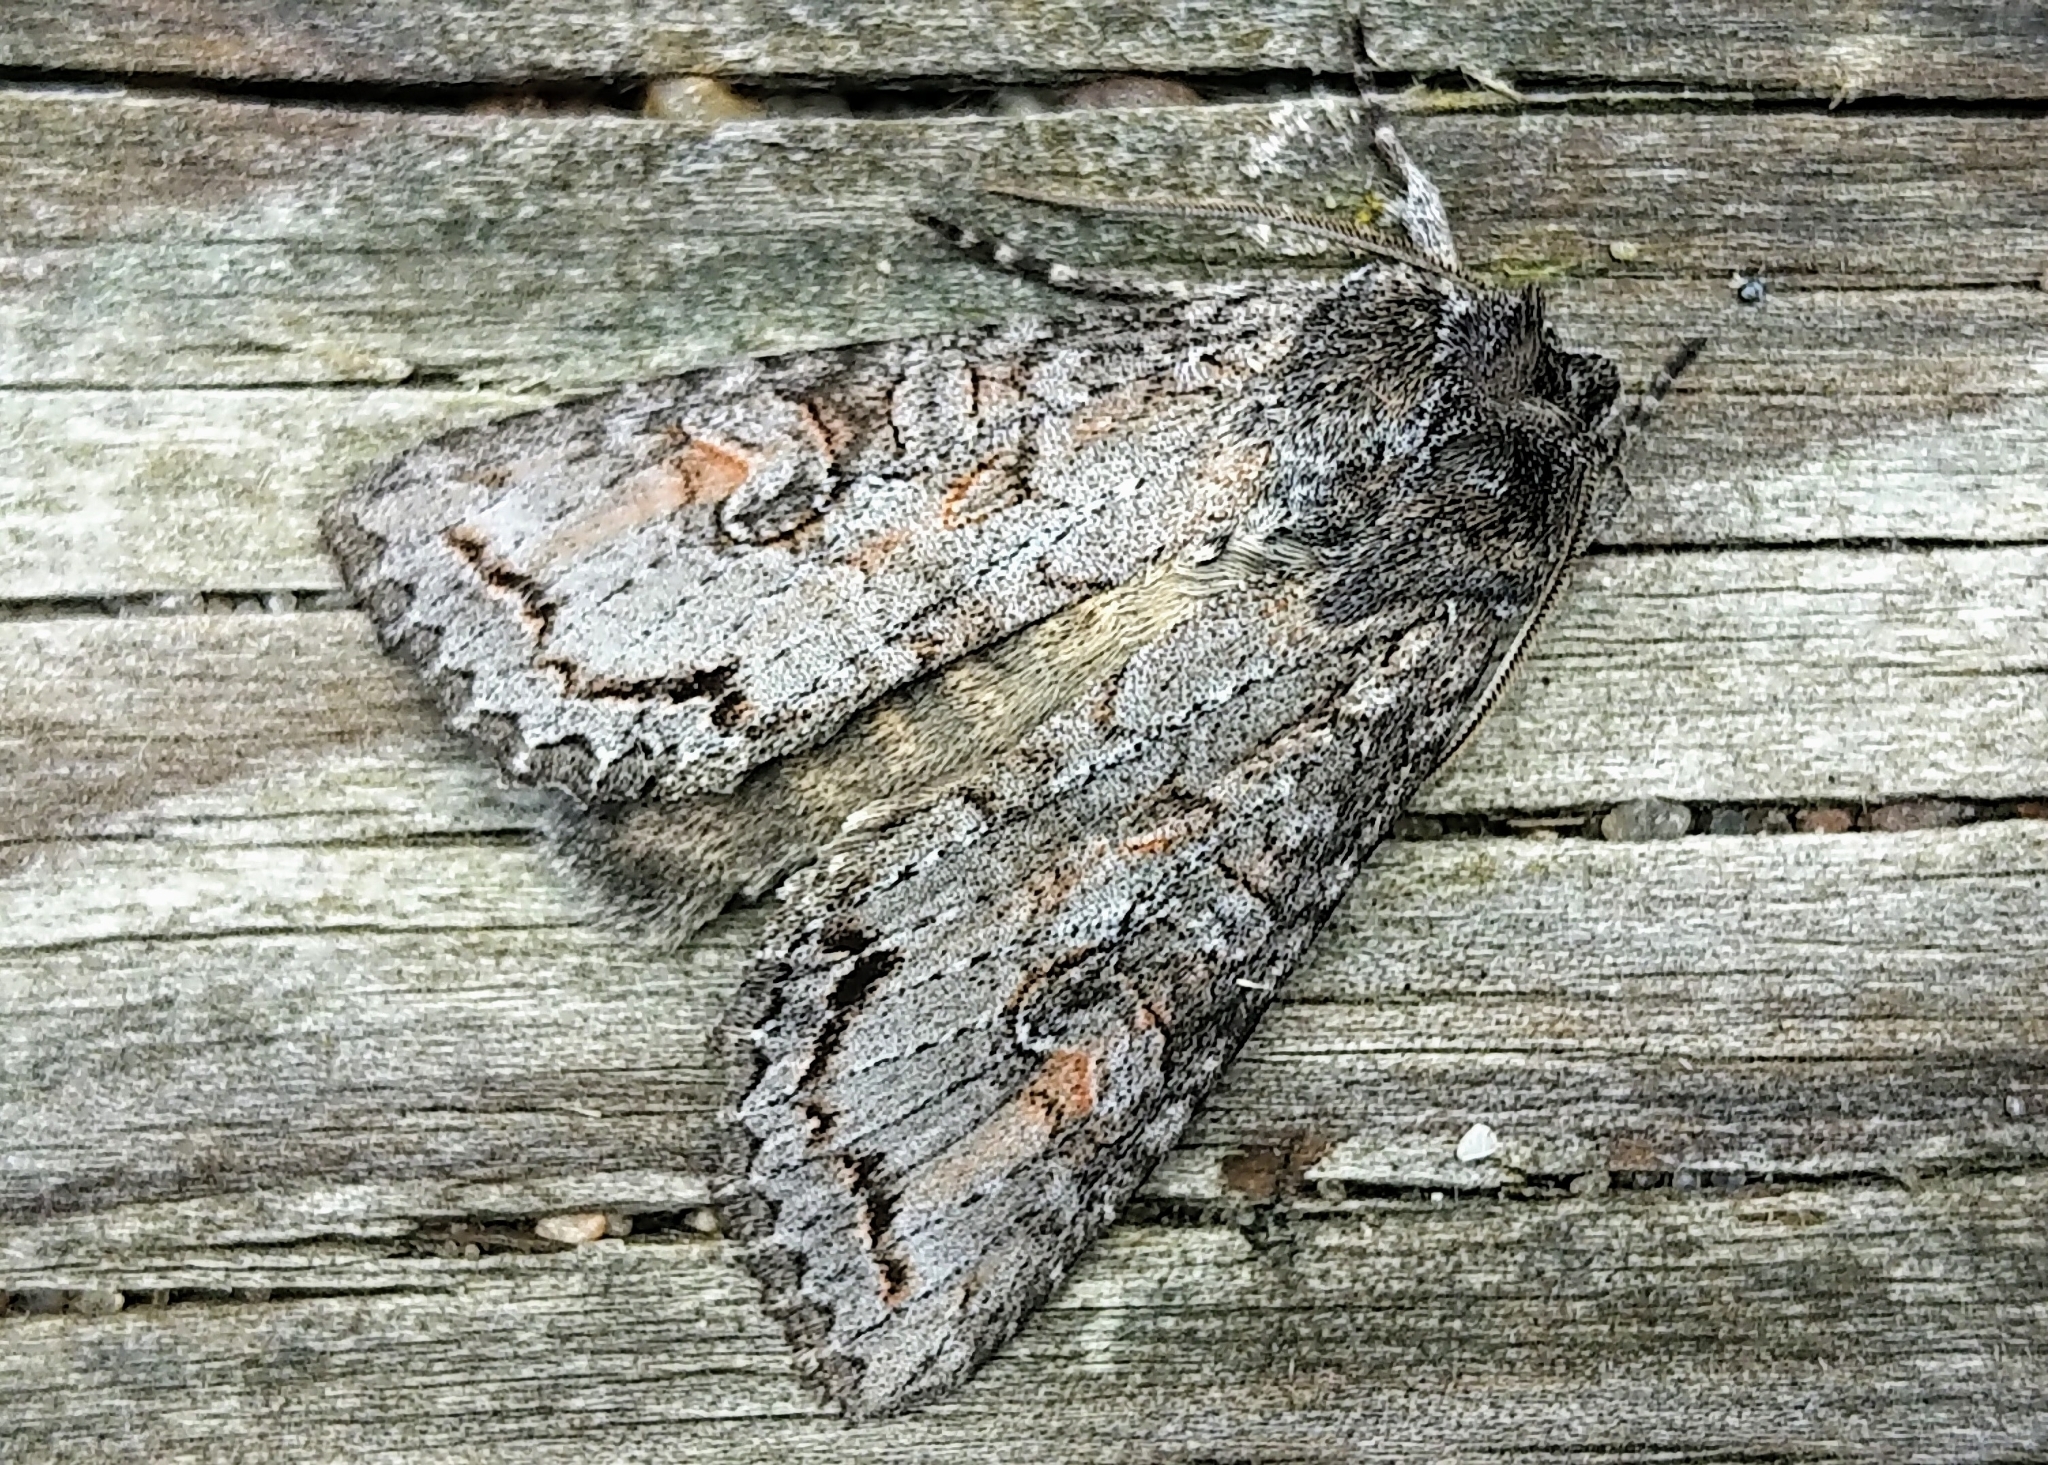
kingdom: Animalia
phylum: Arthropoda
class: Insecta
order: Lepidoptera
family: Noctuidae
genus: Polia
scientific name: Polia purpurissata
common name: Purple arches moth
